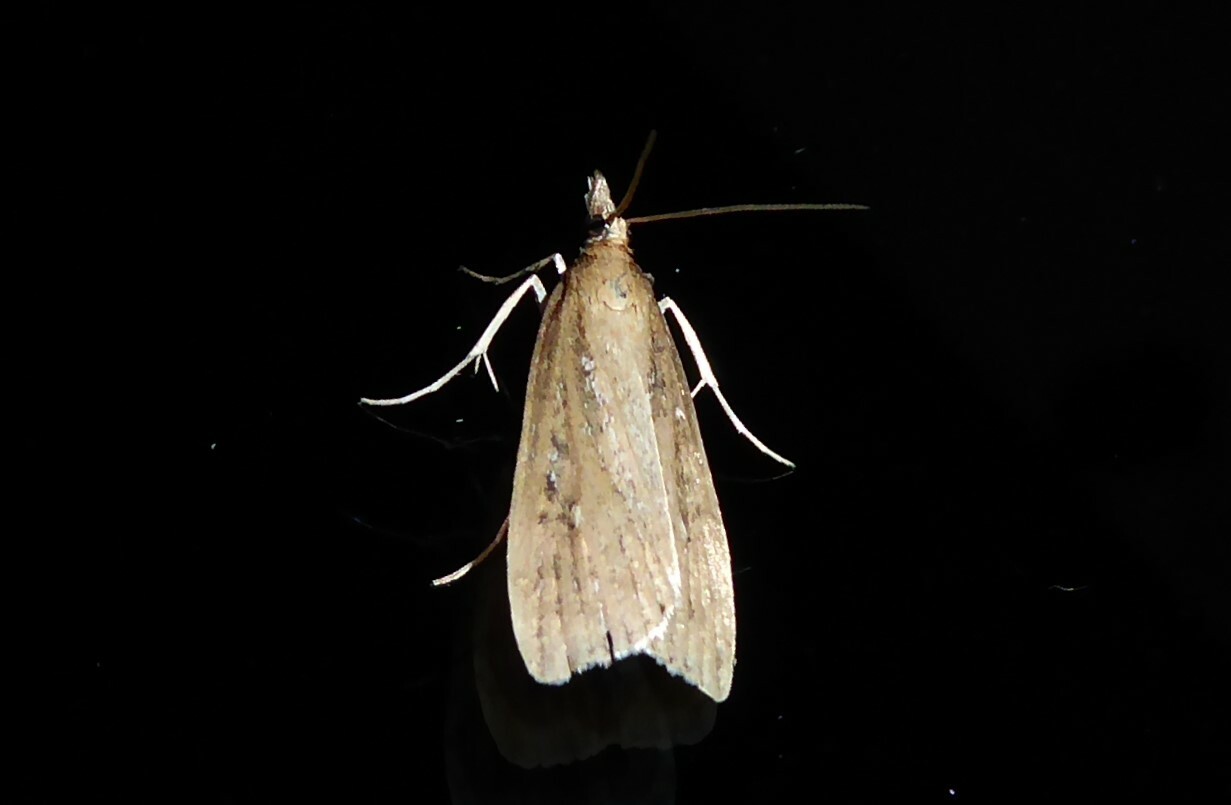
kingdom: Animalia
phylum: Arthropoda
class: Insecta
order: Lepidoptera
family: Crambidae
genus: Eudonia
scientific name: Eudonia octophora
